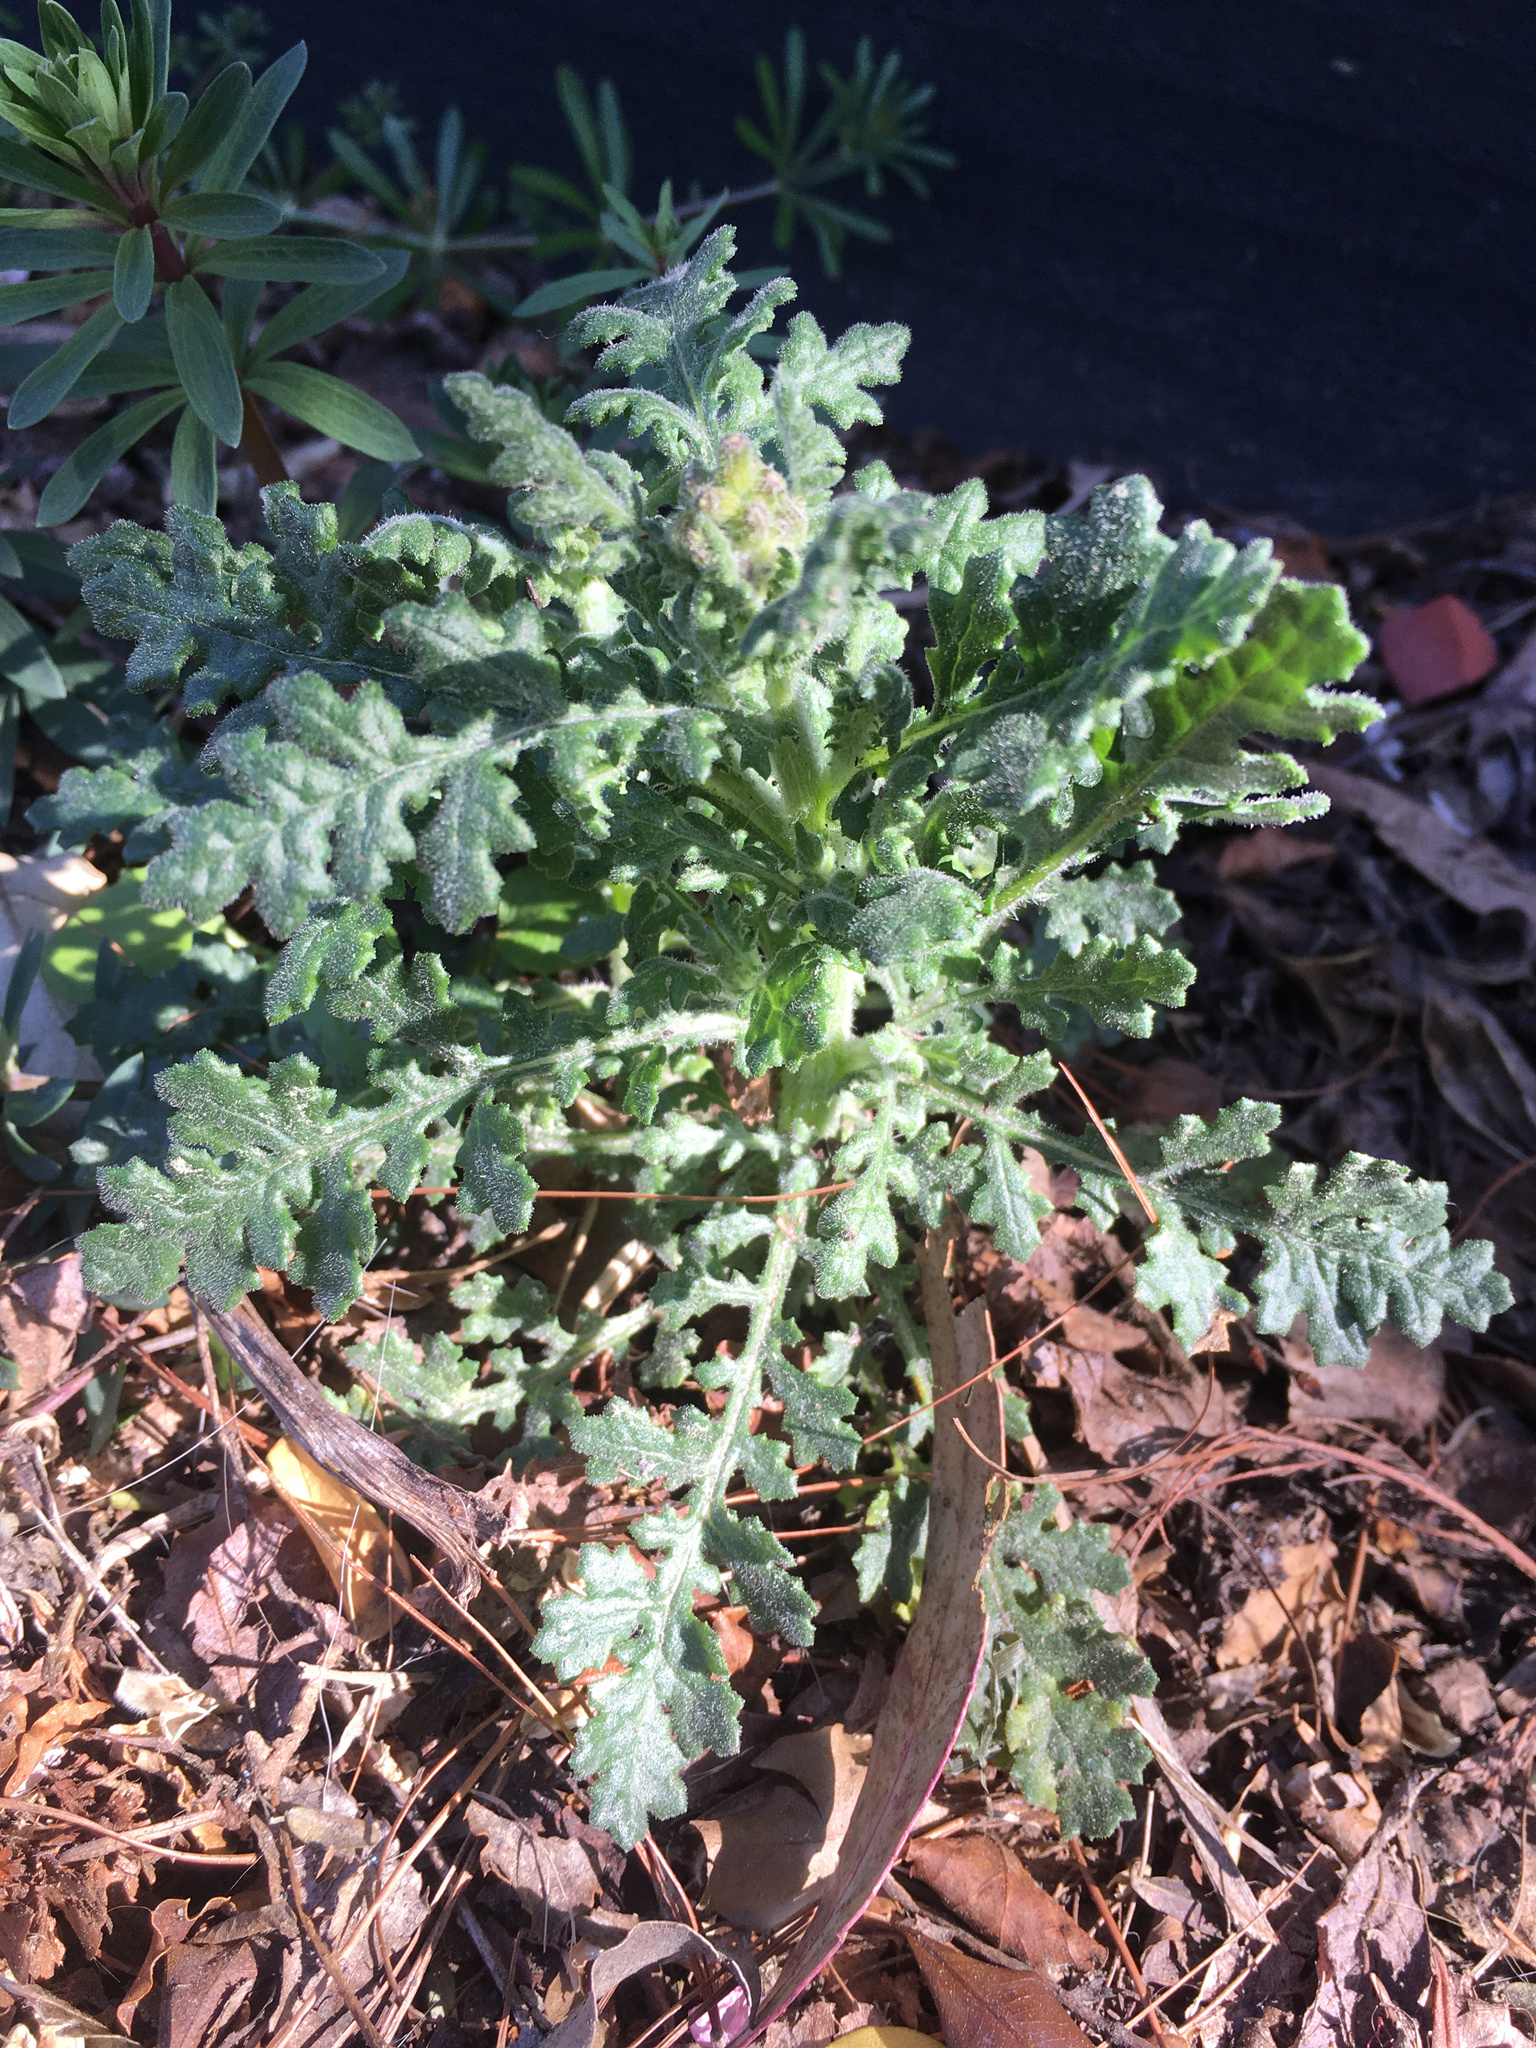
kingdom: Plantae
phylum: Tracheophyta
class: Magnoliopsida
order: Asterales
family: Asteraceae
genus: Senecio
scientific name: Senecio sylvaticus
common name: Woodland ragwort
